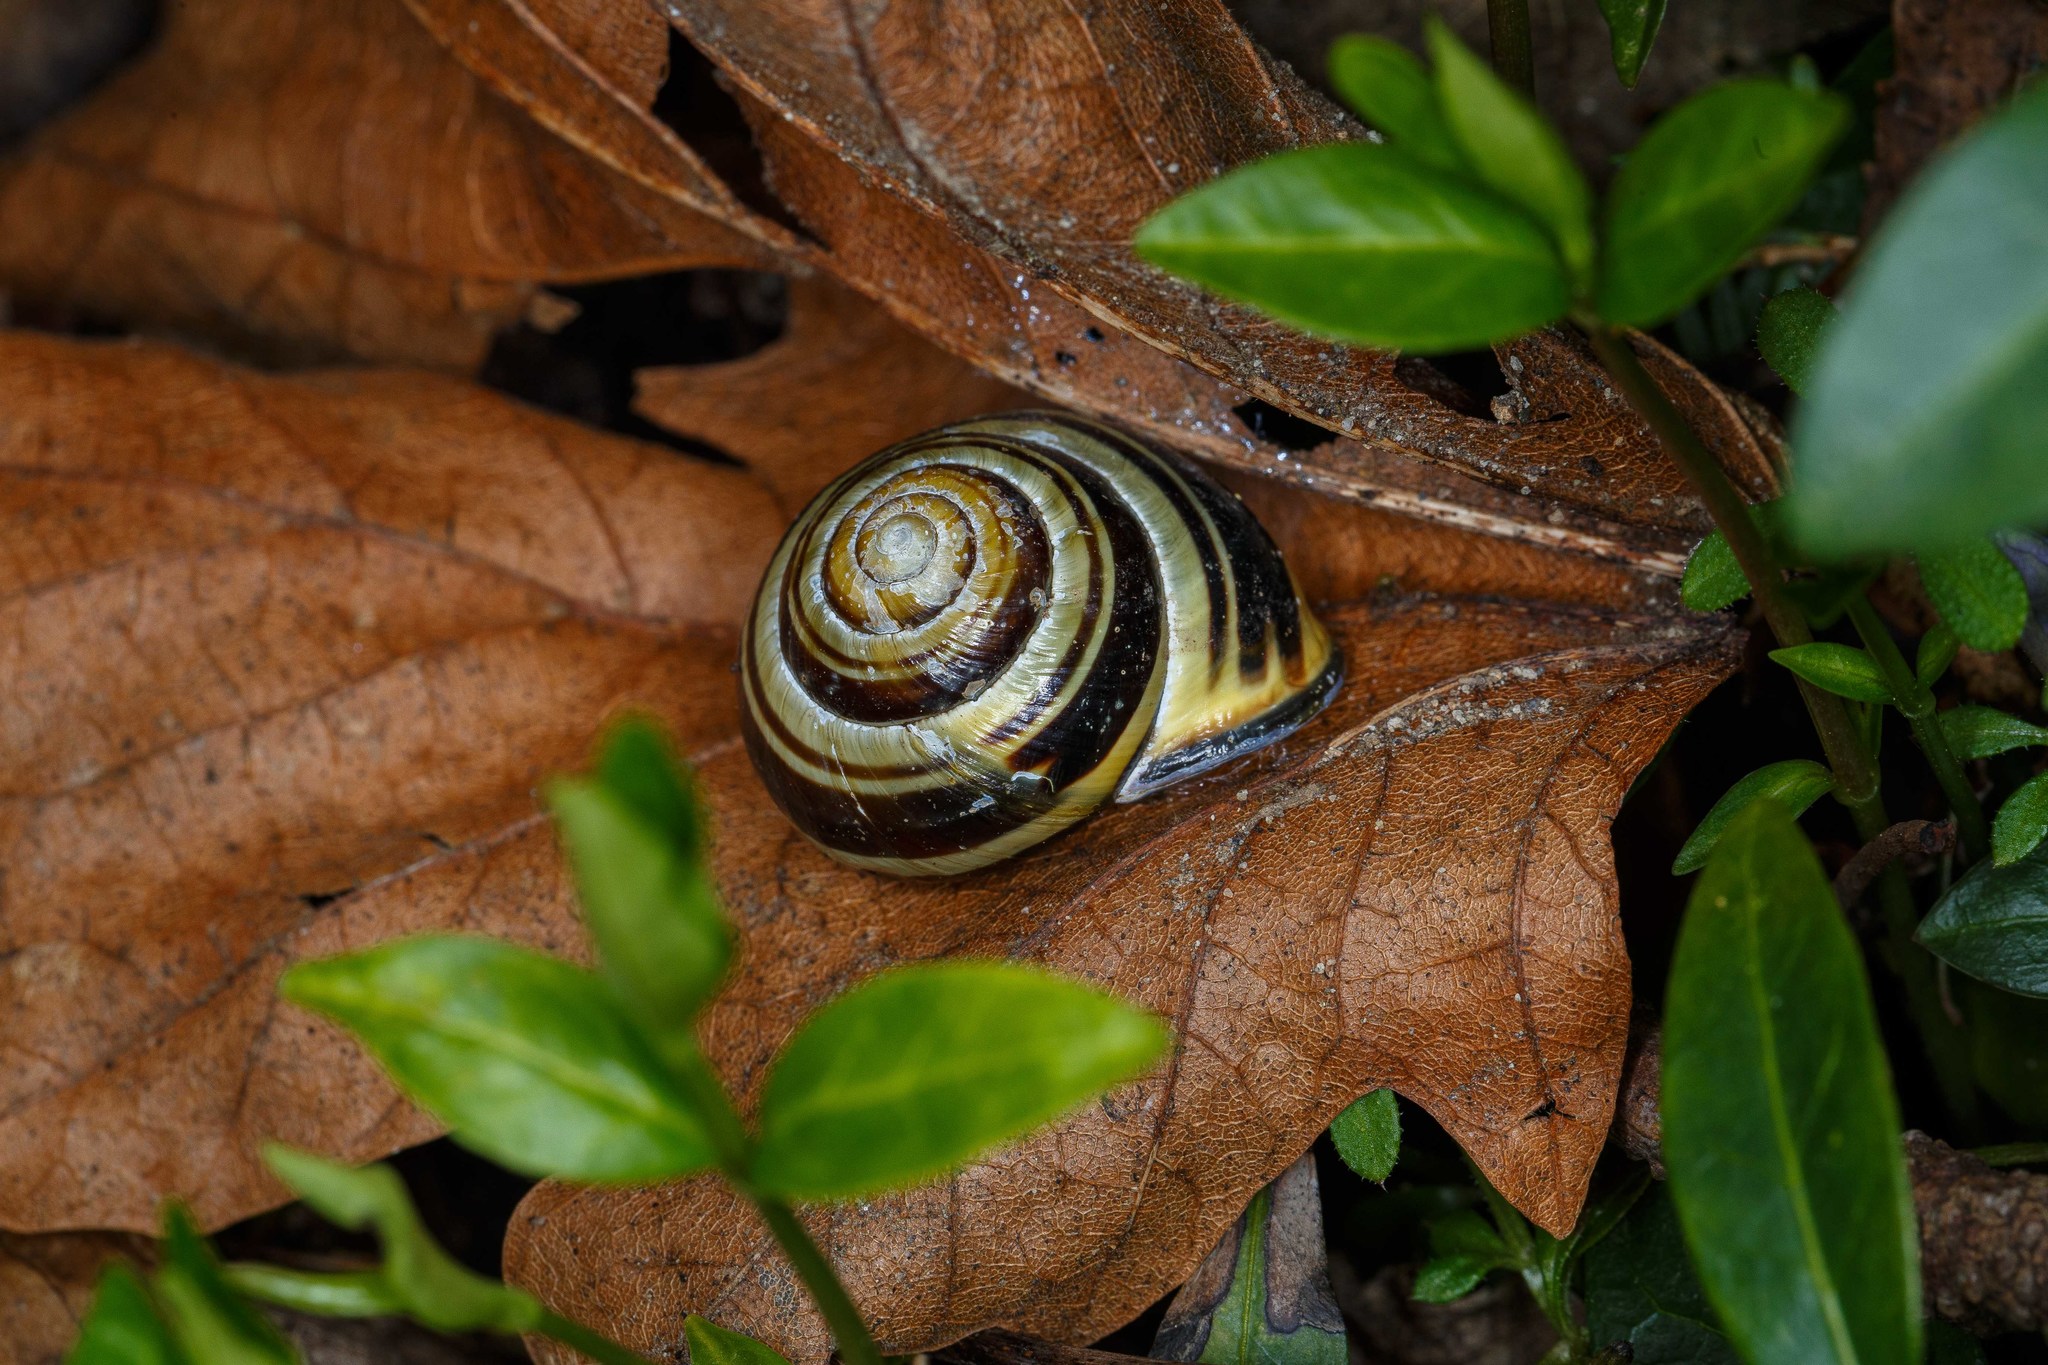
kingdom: Animalia
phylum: Mollusca
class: Gastropoda
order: Stylommatophora
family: Helicidae
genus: Cepaea
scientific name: Cepaea nemoralis
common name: Grovesnail
